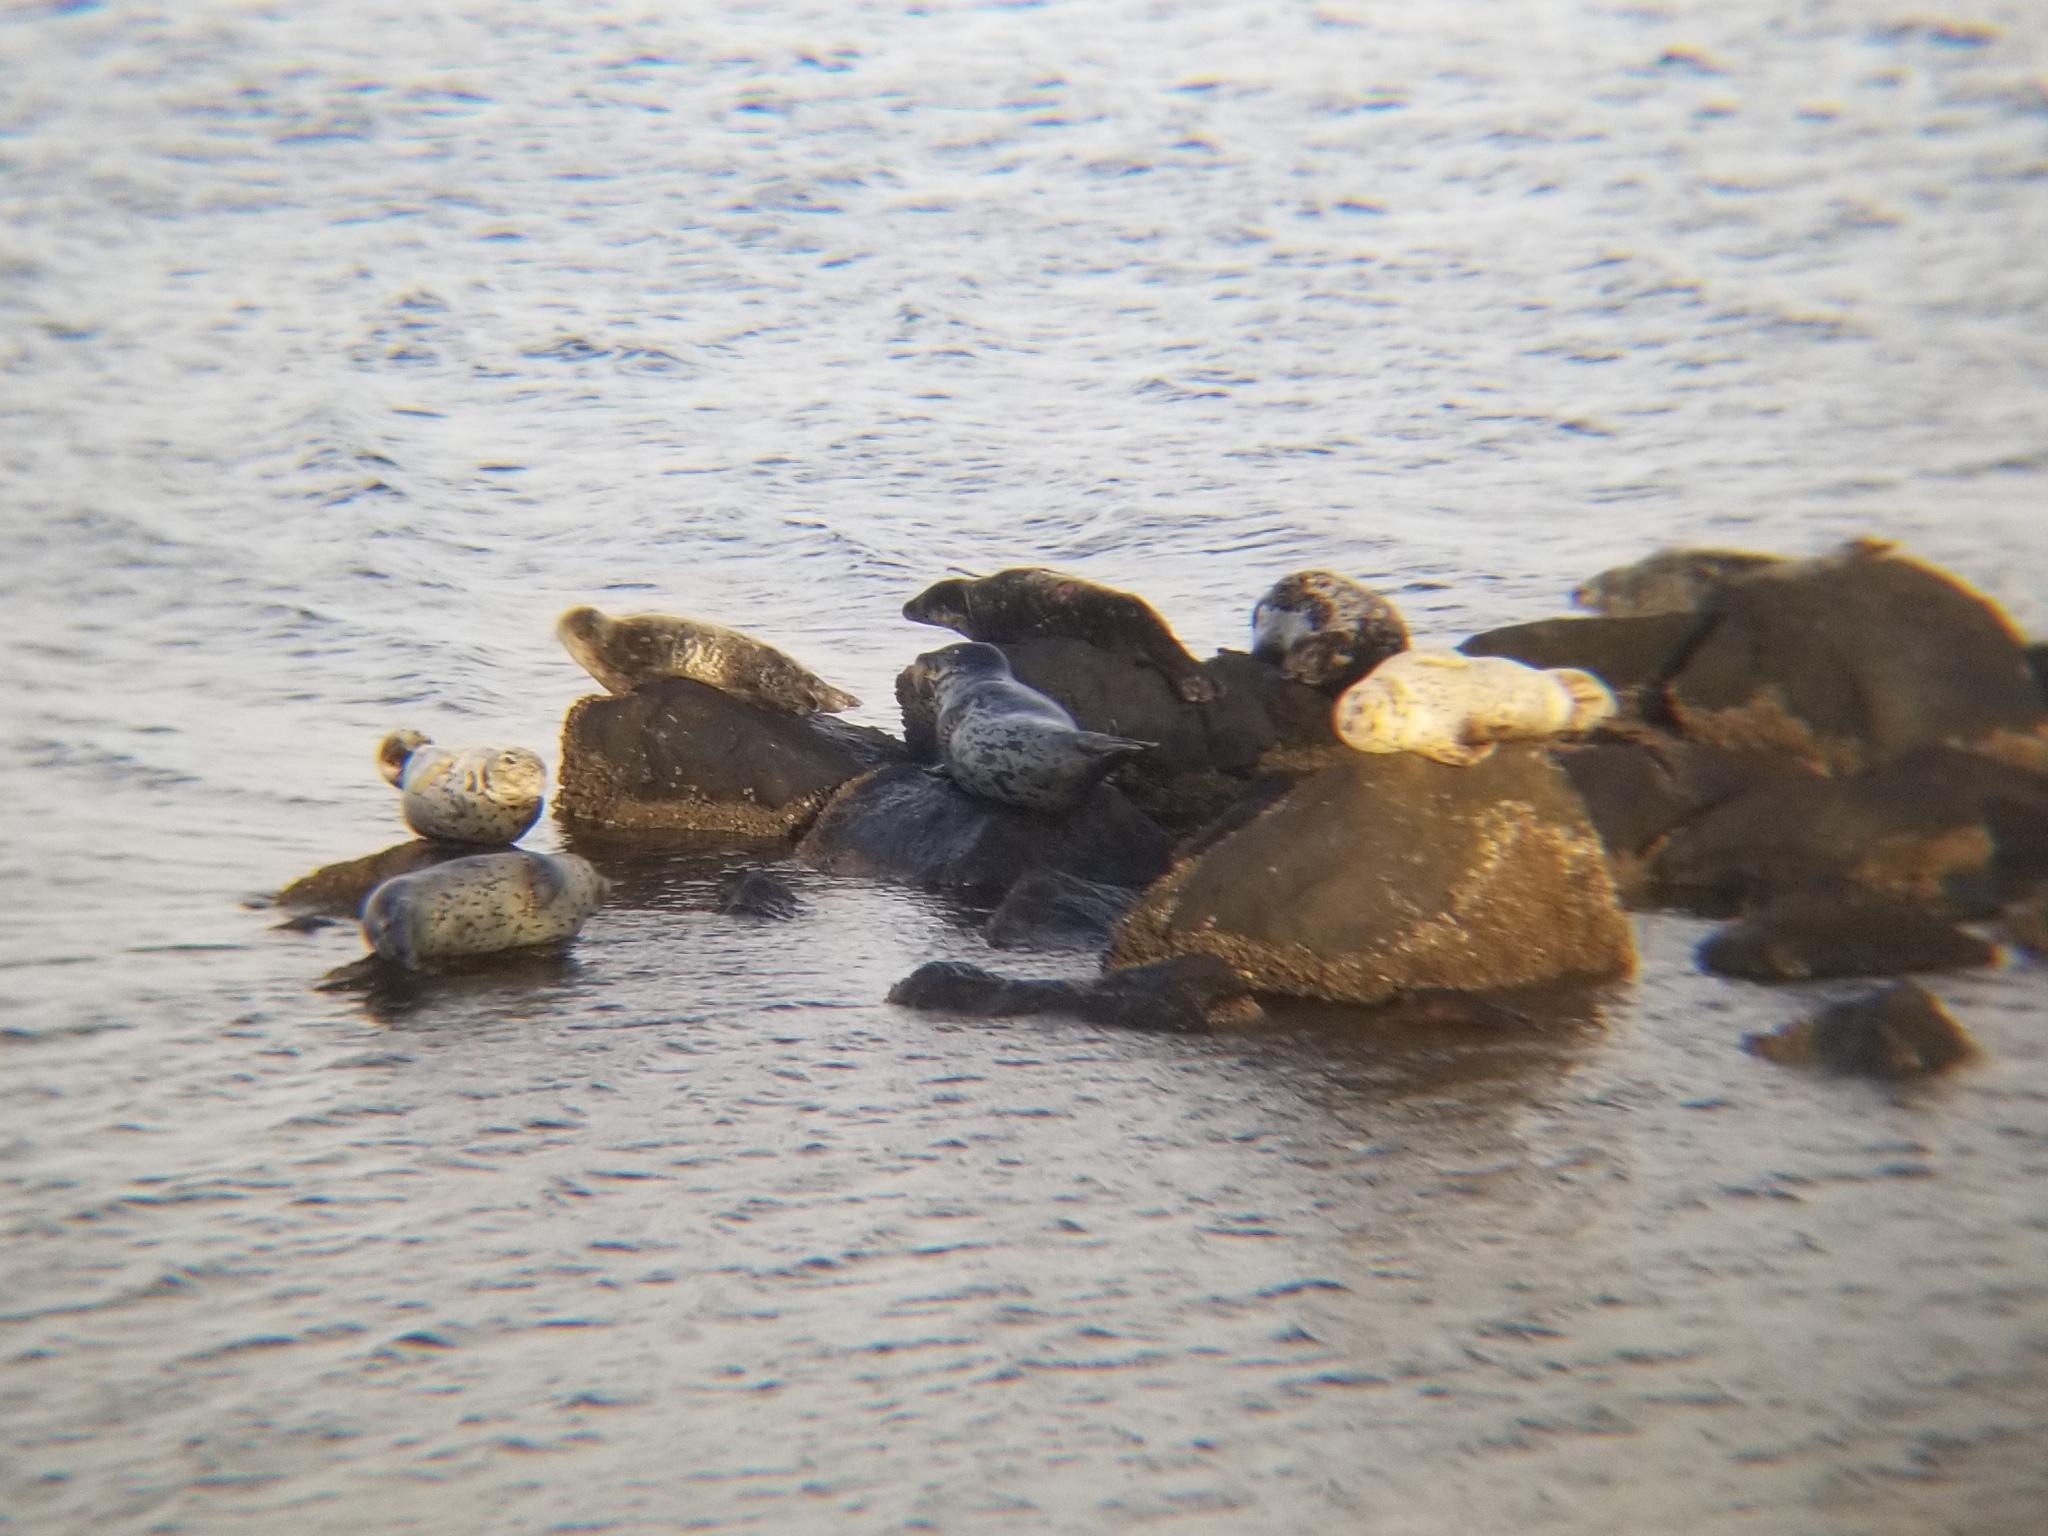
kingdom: Animalia
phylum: Chordata
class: Mammalia
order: Carnivora
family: Phocidae
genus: Phoca
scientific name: Phoca vitulina
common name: Harbor seal
